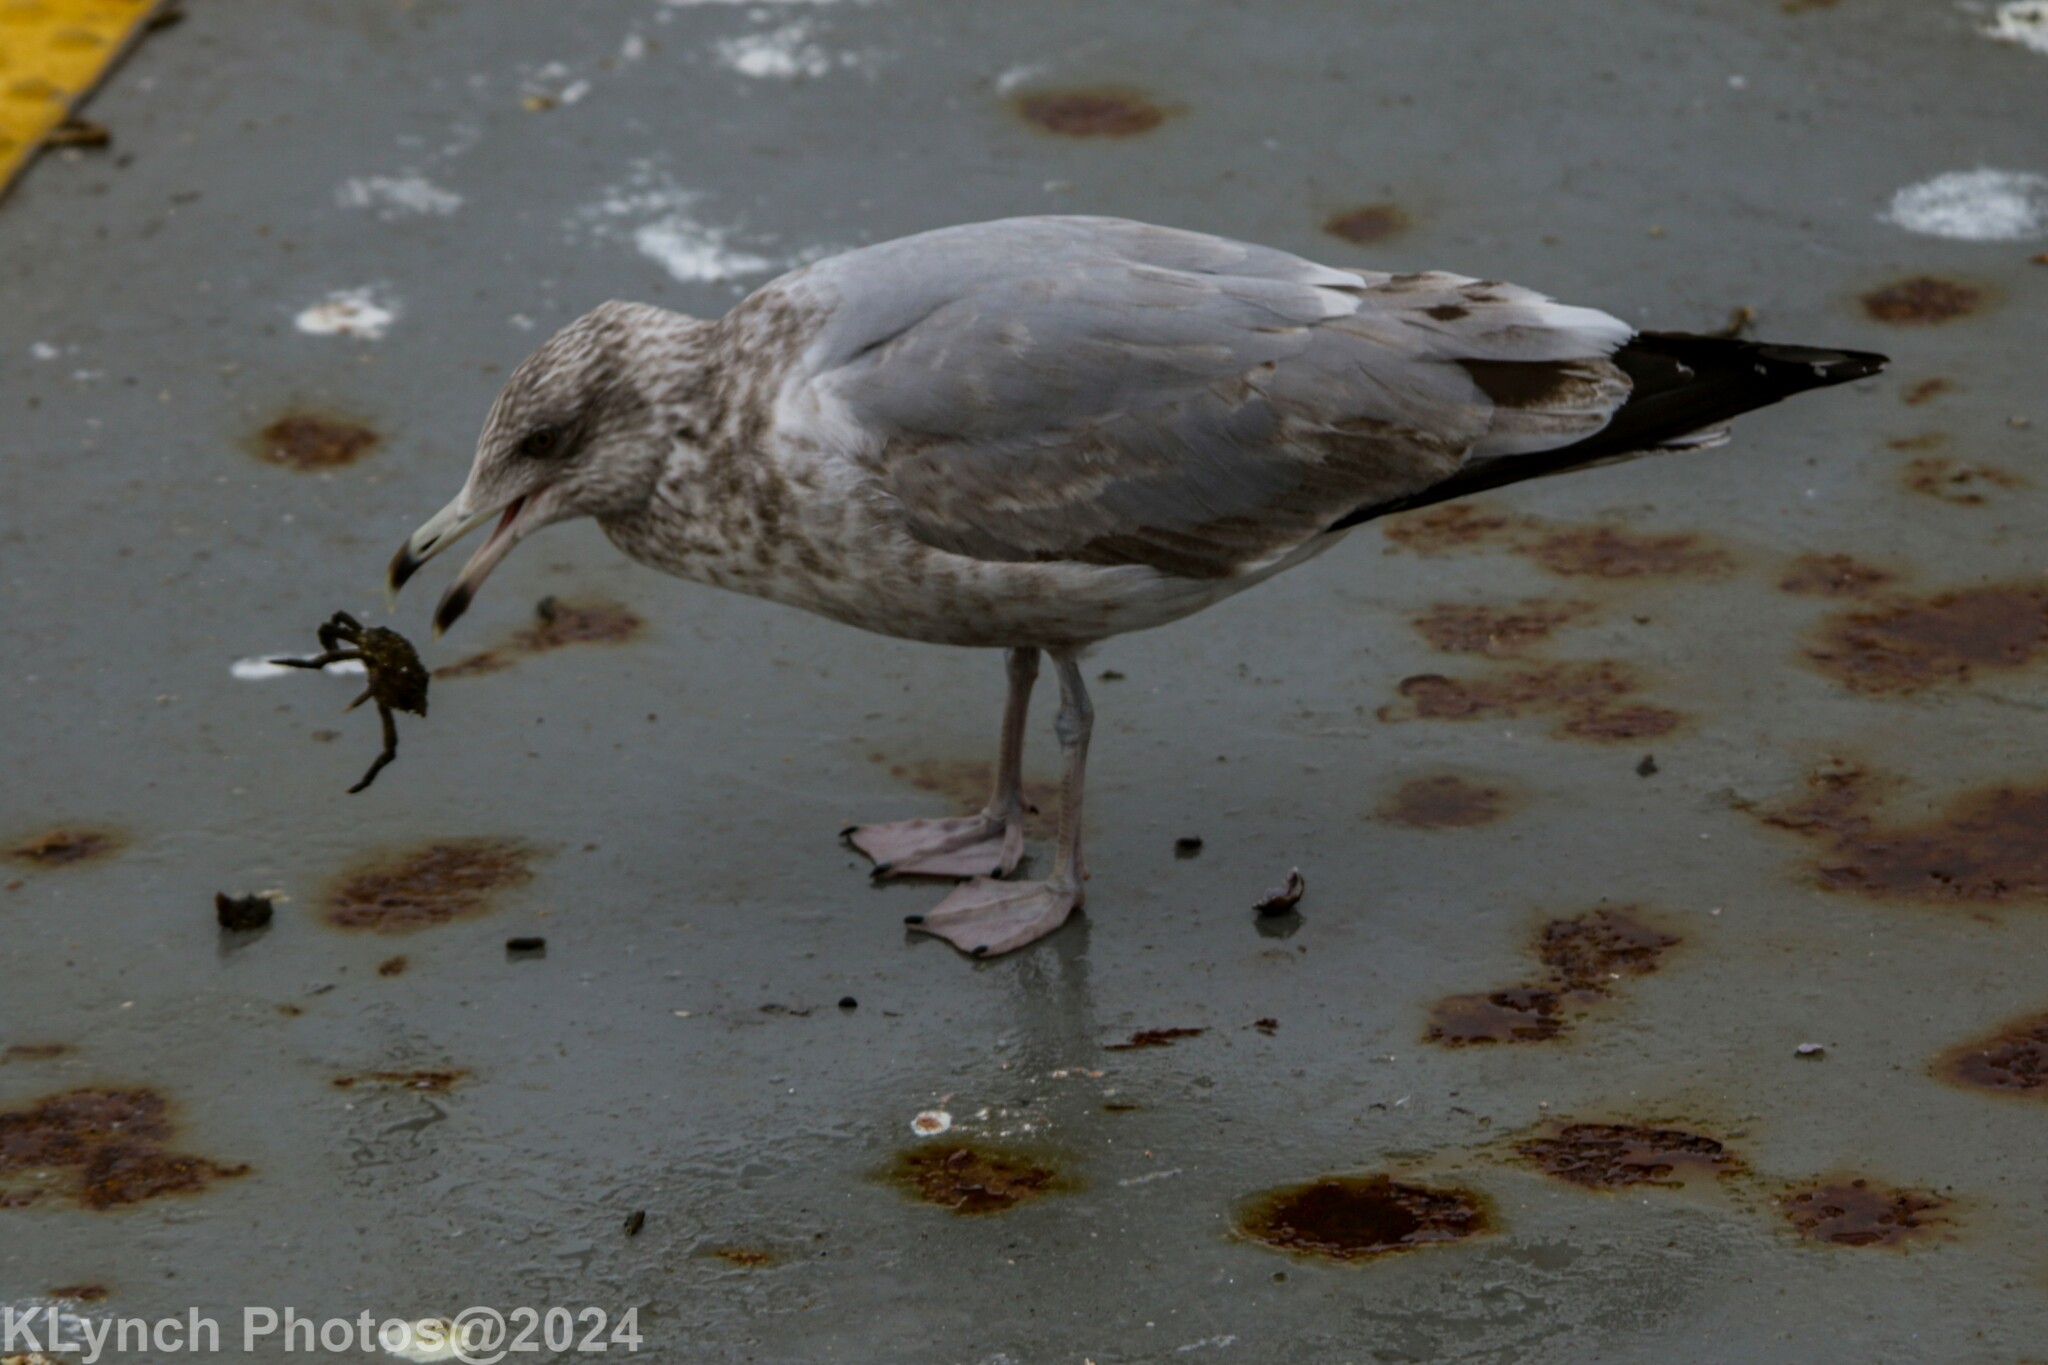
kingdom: Animalia
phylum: Chordata
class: Aves
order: Charadriiformes
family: Laridae
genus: Larus
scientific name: Larus argentatus
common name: Herring gull
